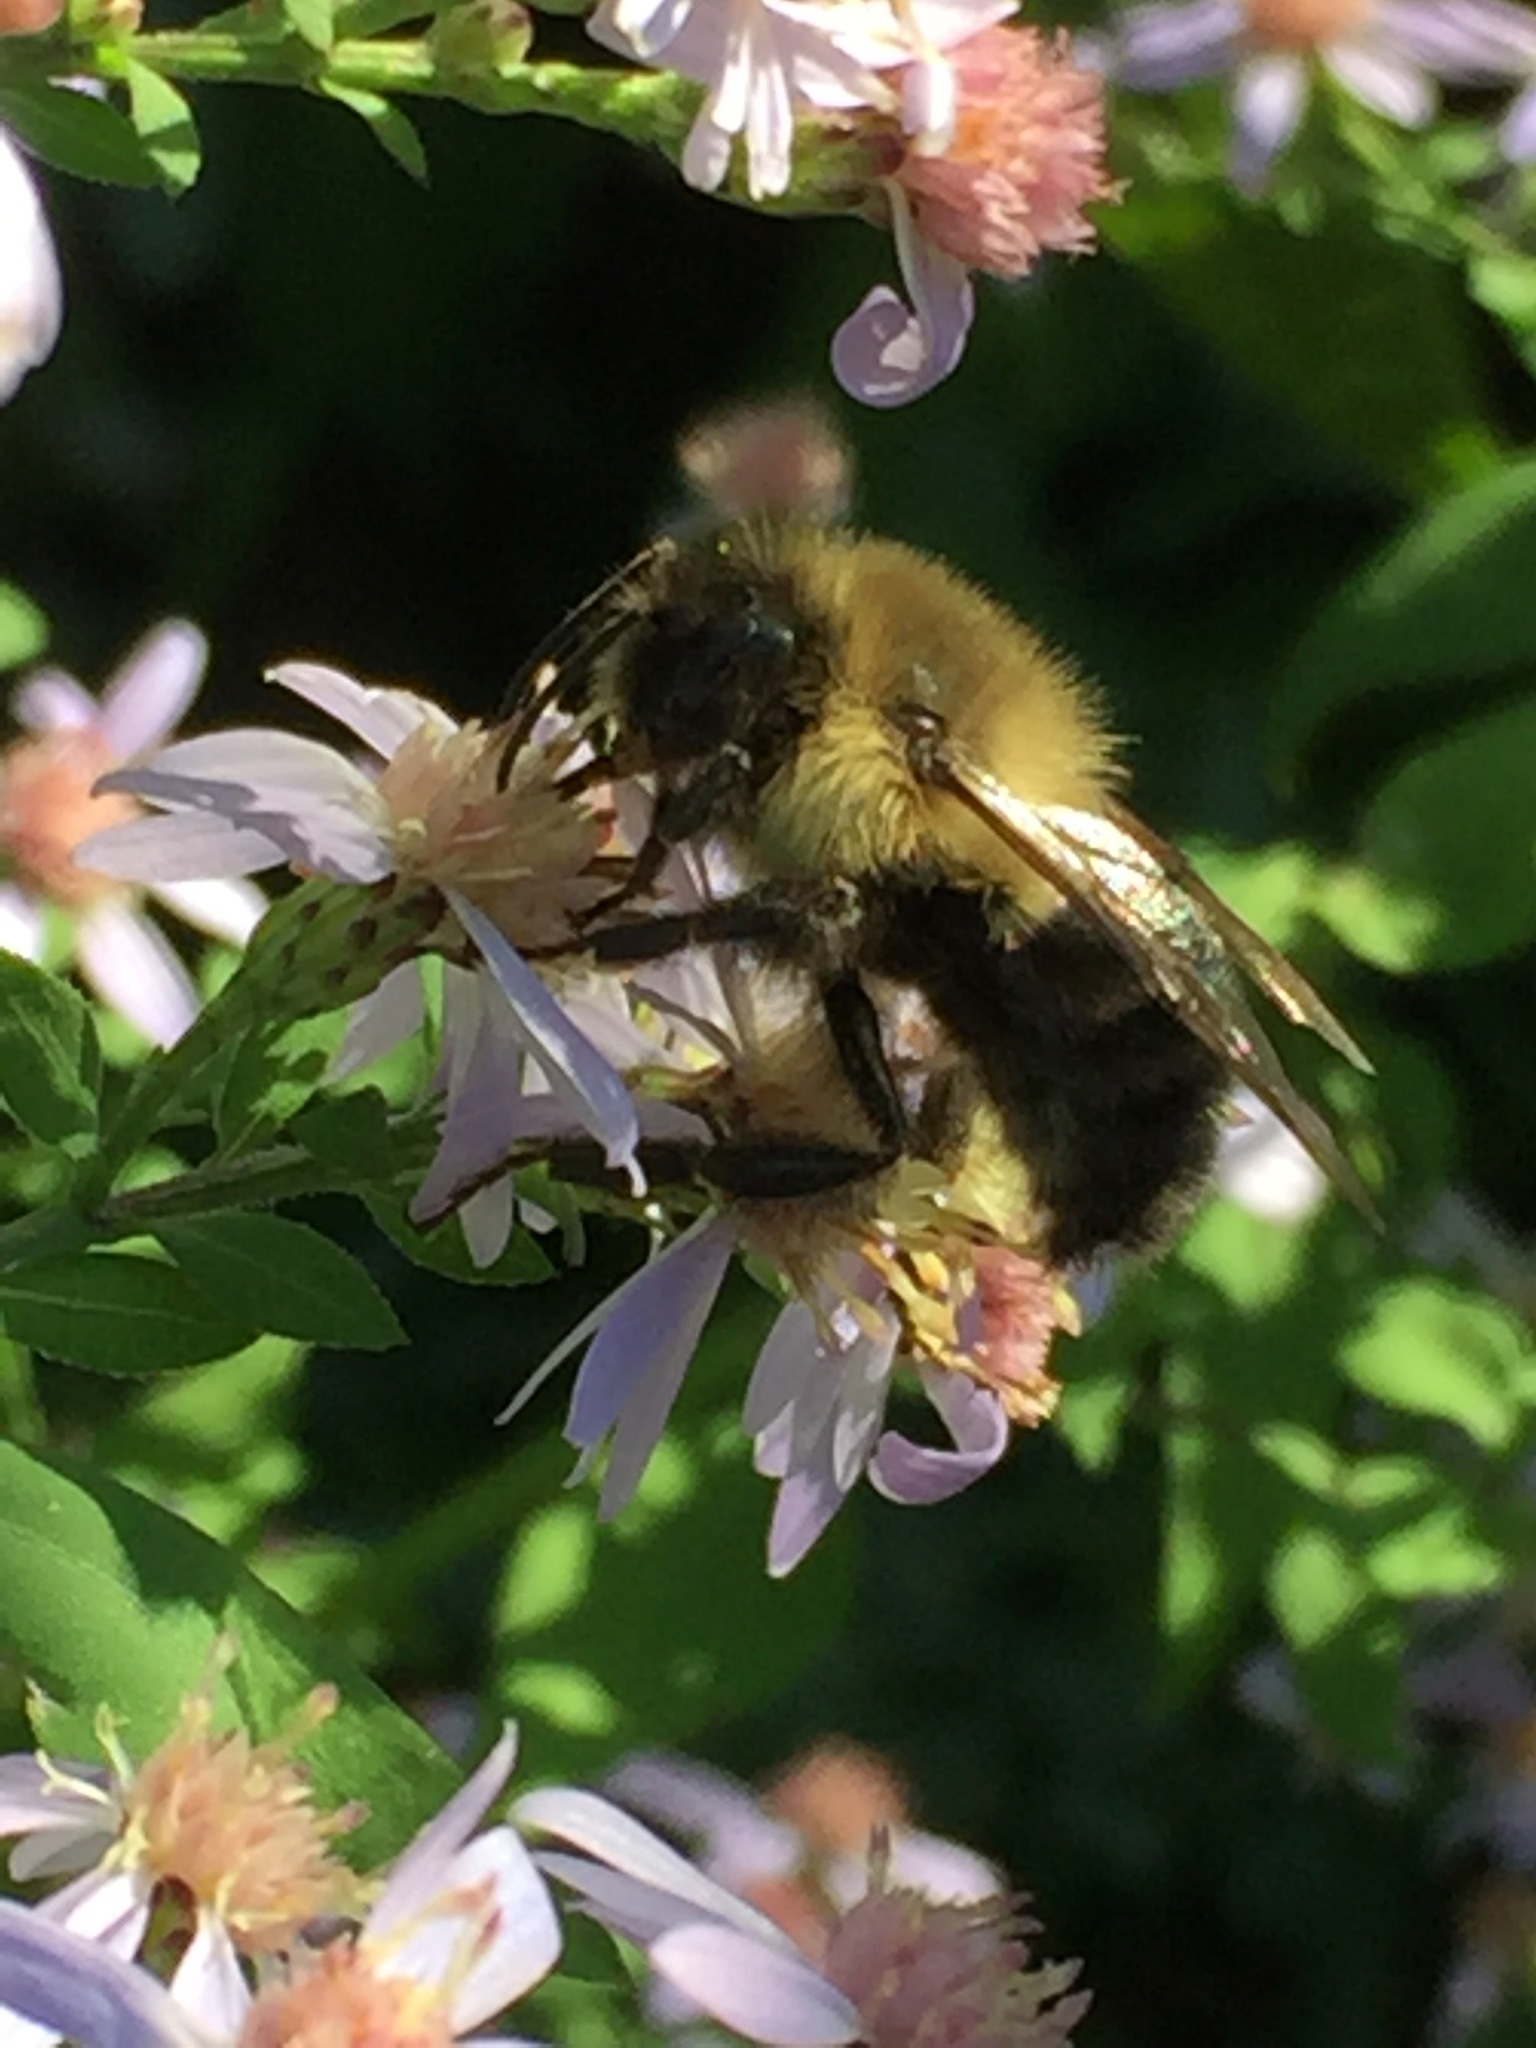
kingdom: Animalia
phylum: Arthropoda
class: Insecta
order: Hymenoptera
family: Apidae
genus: Bombus
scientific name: Bombus impatiens
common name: Common eastern bumble bee
